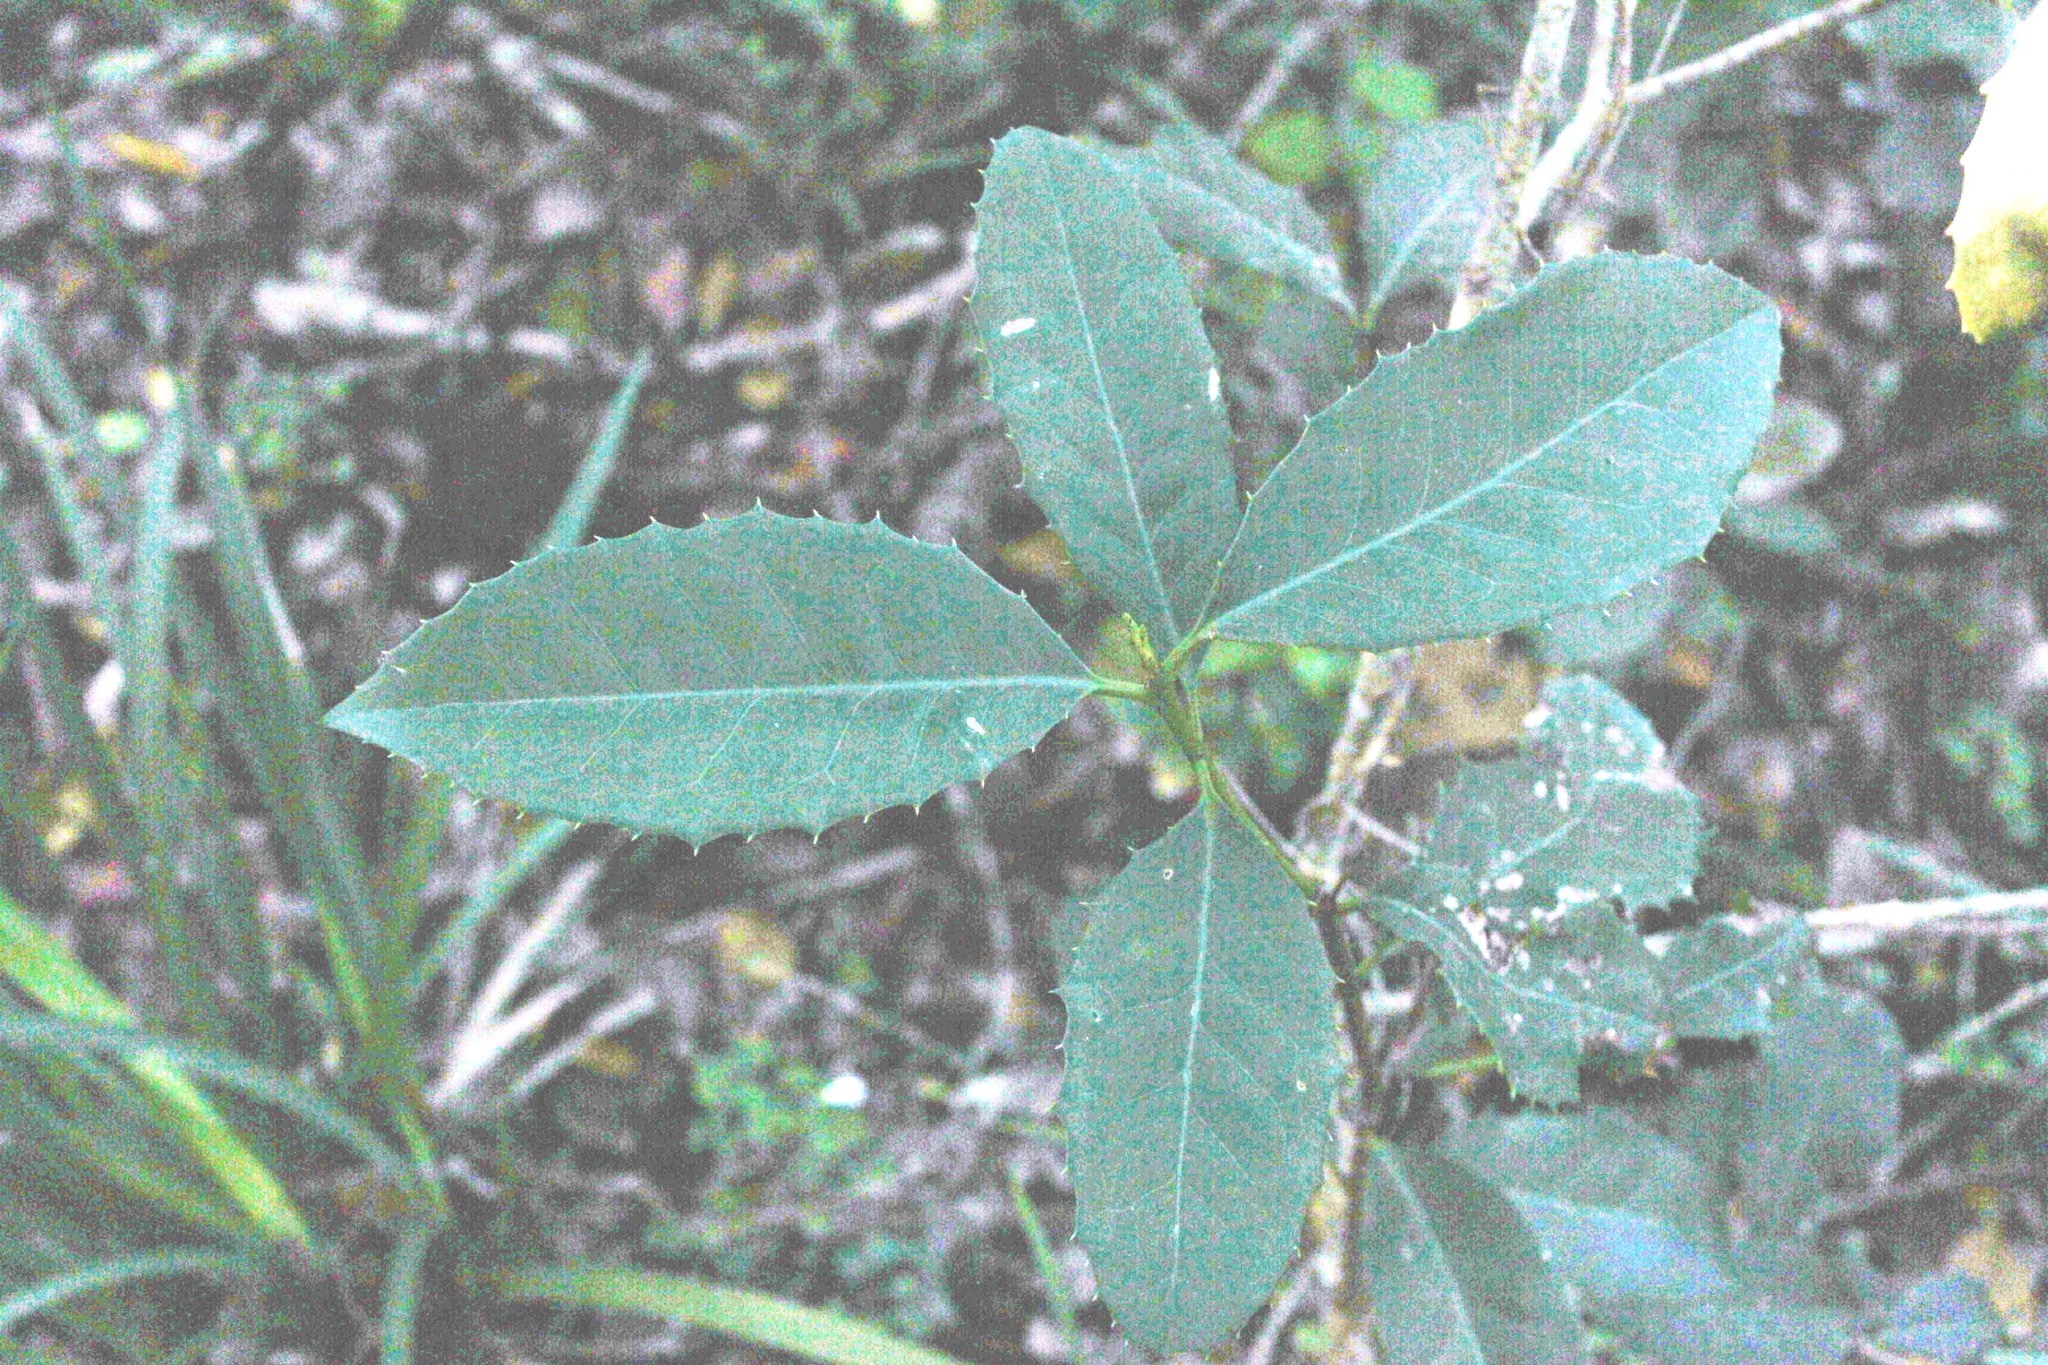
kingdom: Plantae
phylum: Tracheophyta
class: Magnoliopsida
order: Celastrales
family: Celastraceae
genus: Elaeodendron
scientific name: Elaeodendron croceum
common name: Saffron
